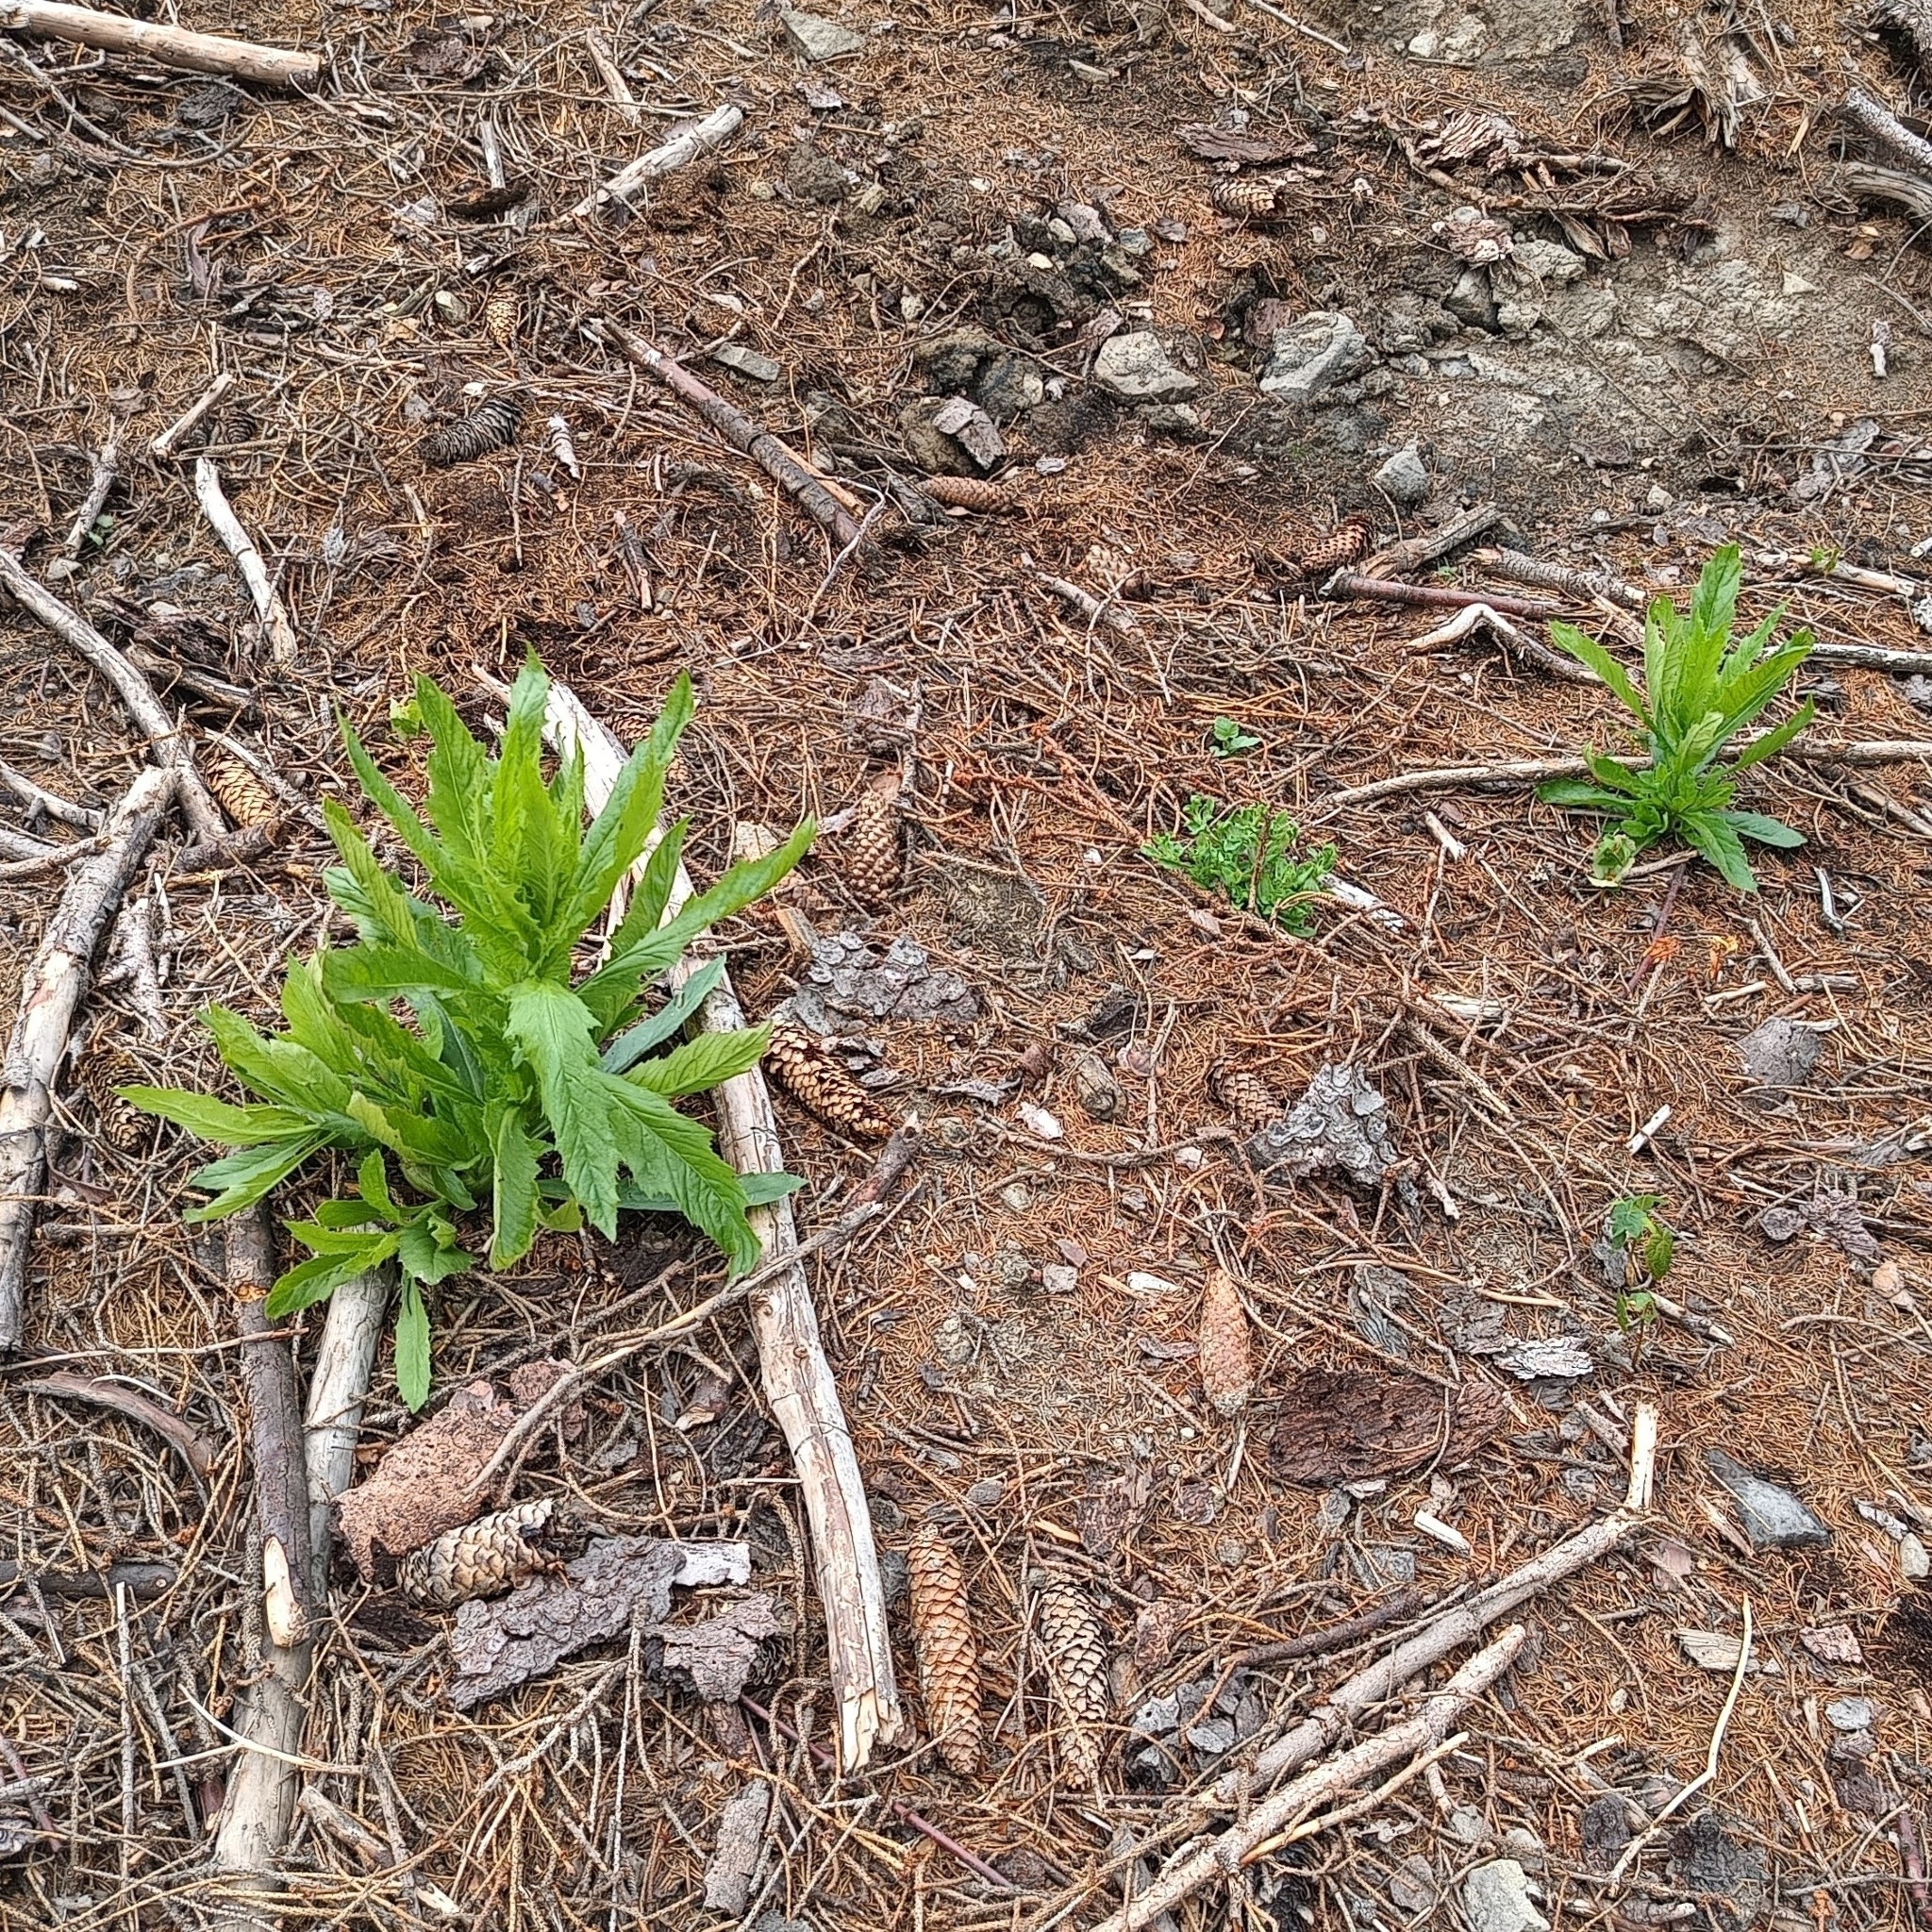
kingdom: Plantae
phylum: Tracheophyta
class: Magnoliopsida
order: Asterales
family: Asteraceae
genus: Erechtites
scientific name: Erechtites hieraciifolius
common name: American burnweed
